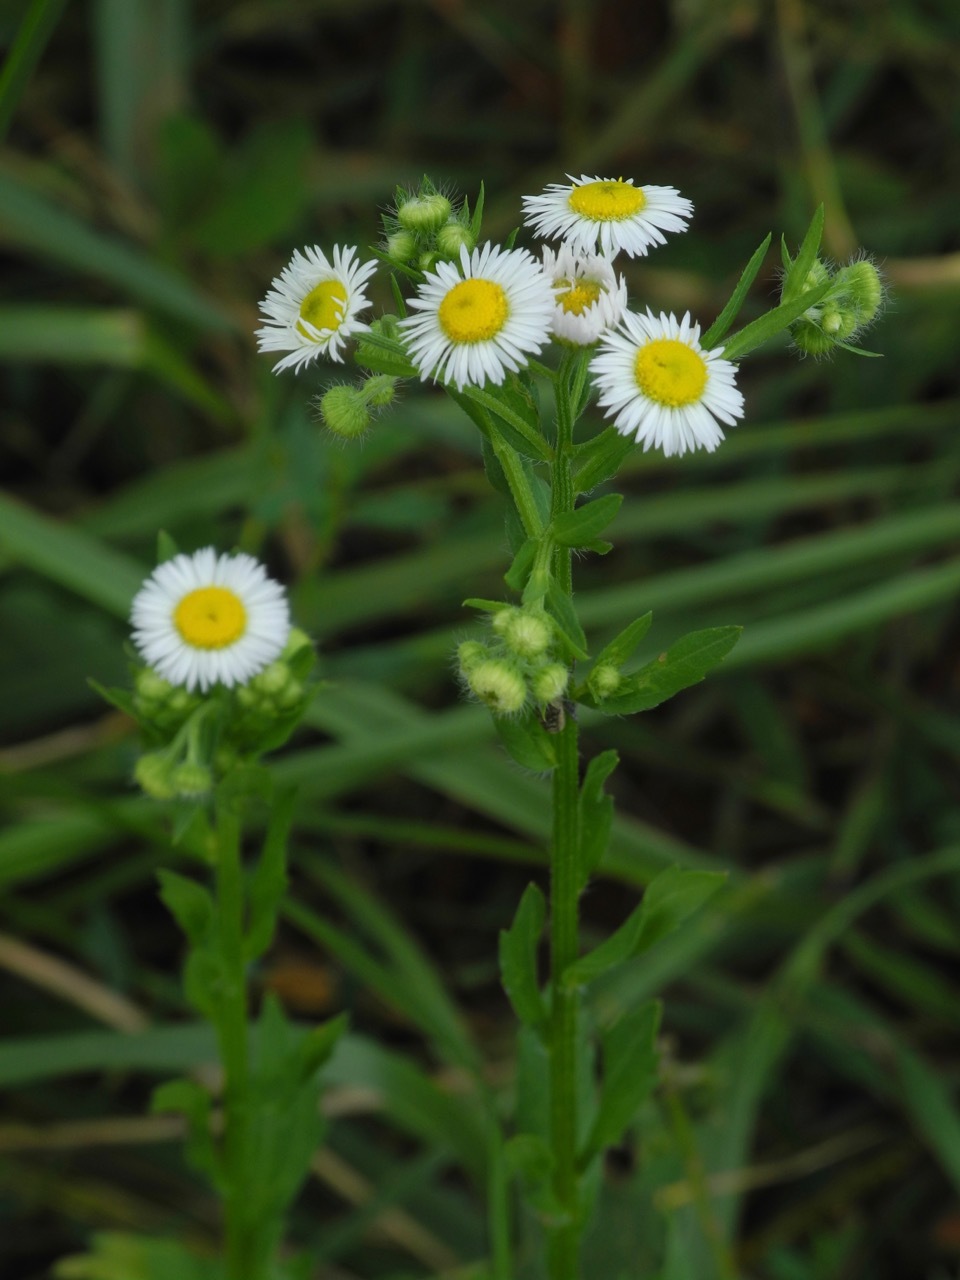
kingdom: Plantae
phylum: Tracheophyta
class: Magnoliopsida
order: Asterales
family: Asteraceae
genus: Erigeron
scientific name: Erigeron annuus
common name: Tall fleabane
